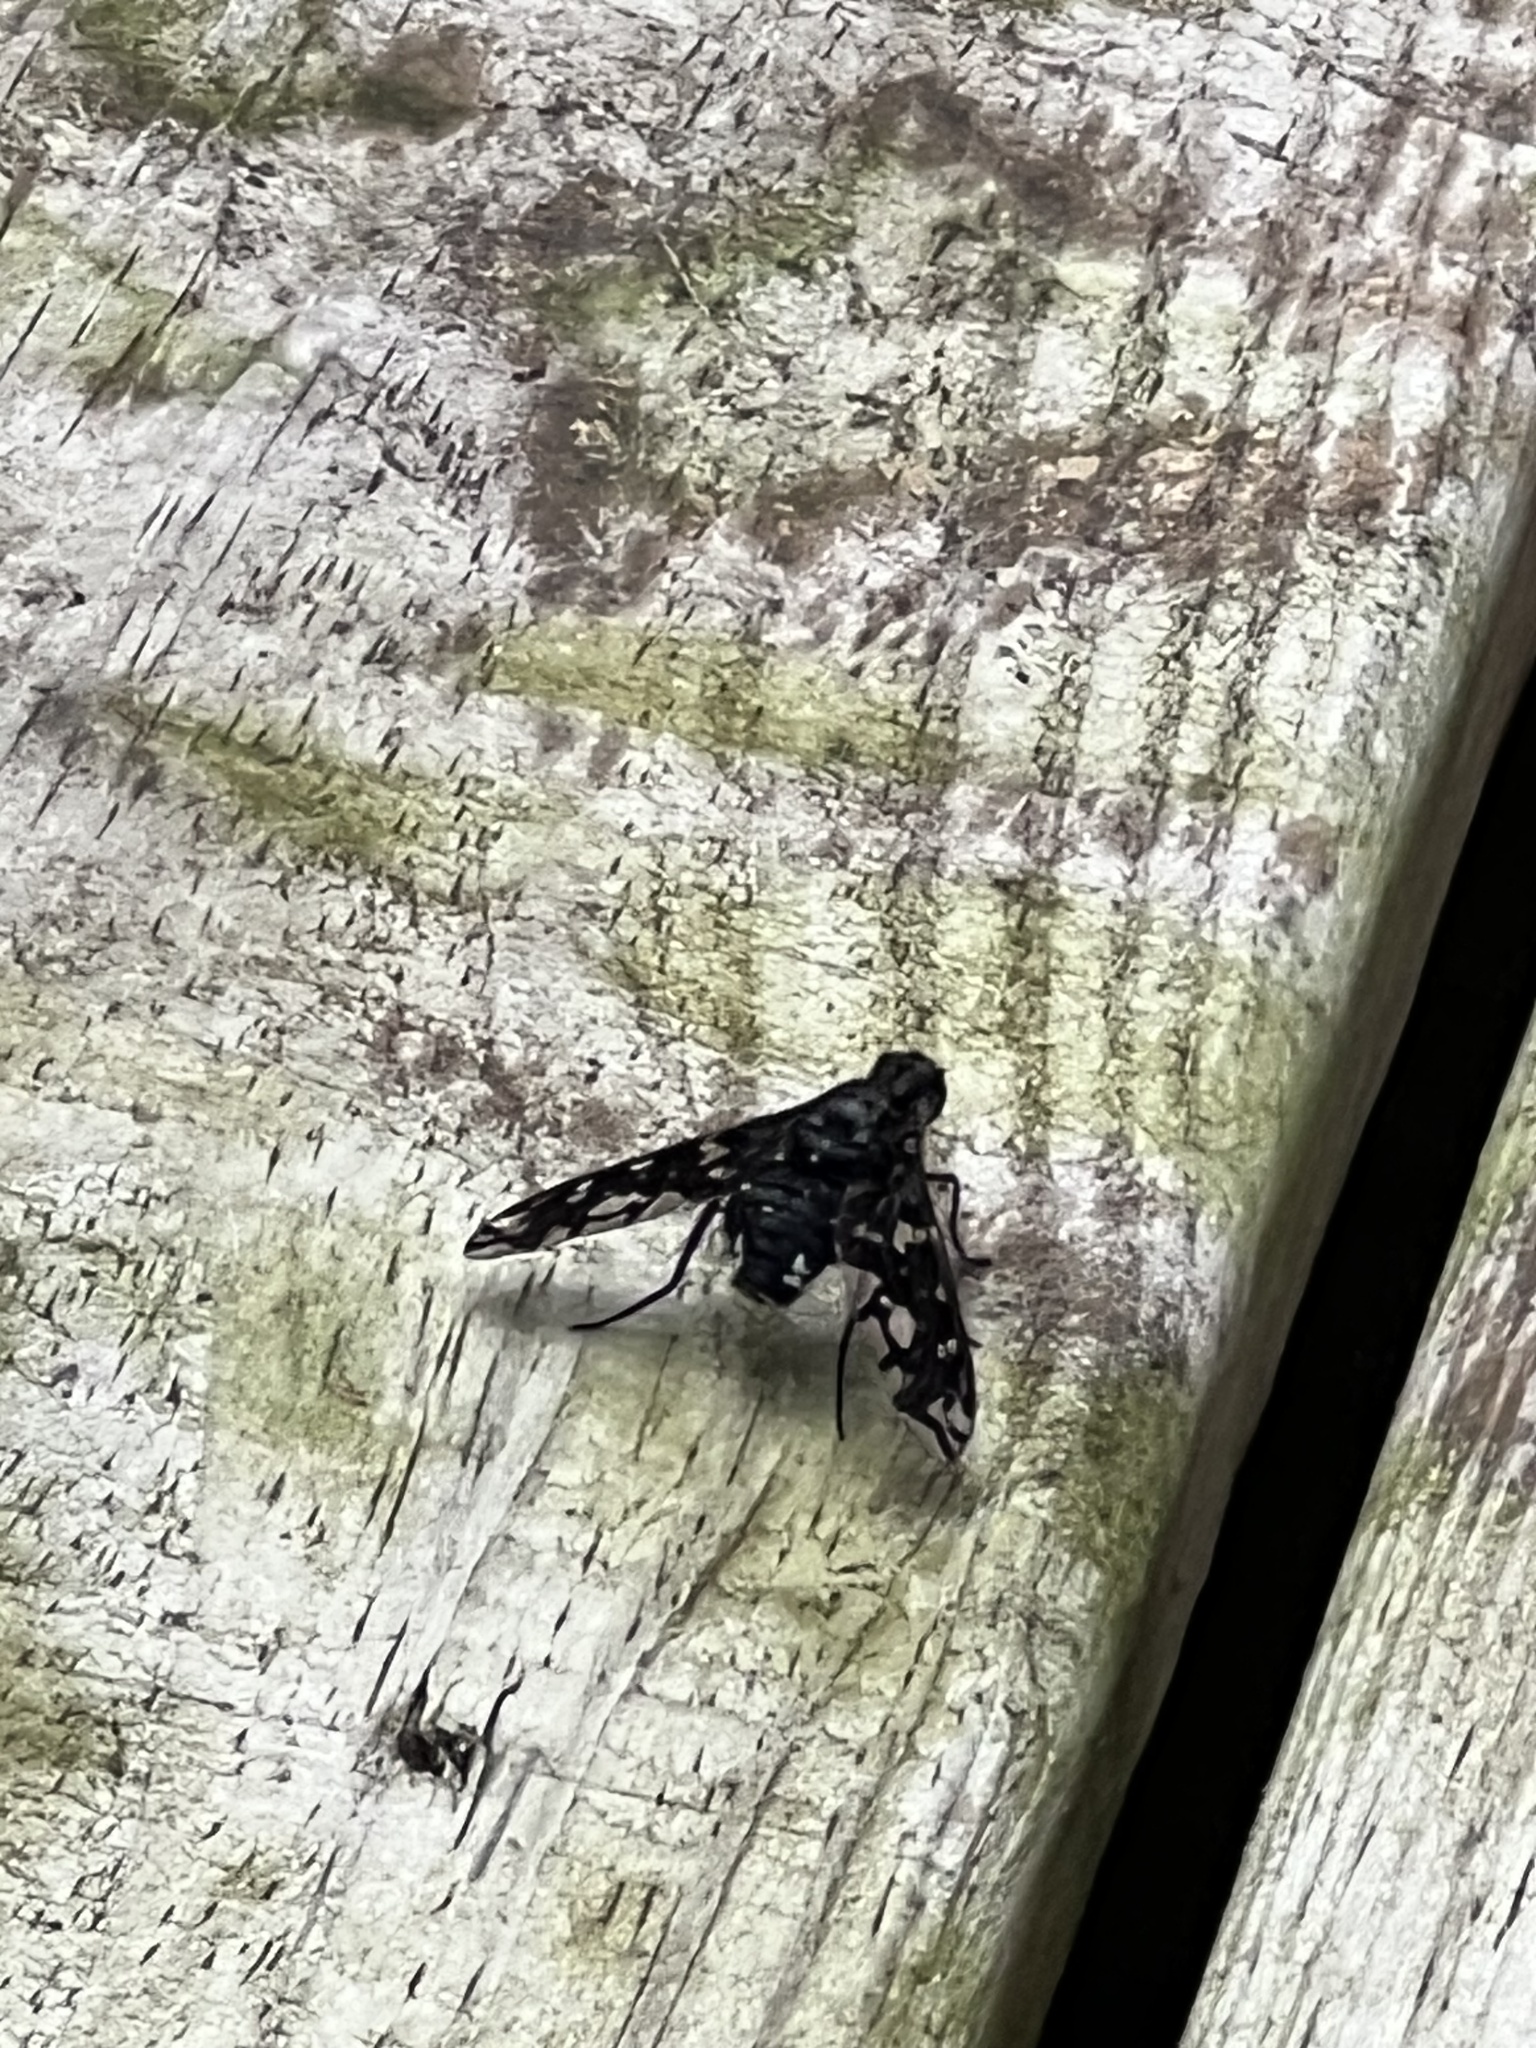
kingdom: Animalia
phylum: Arthropoda
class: Insecta
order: Diptera
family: Bombyliidae
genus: Xenox
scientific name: Xenox tigrinus
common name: Tiger bee fly
